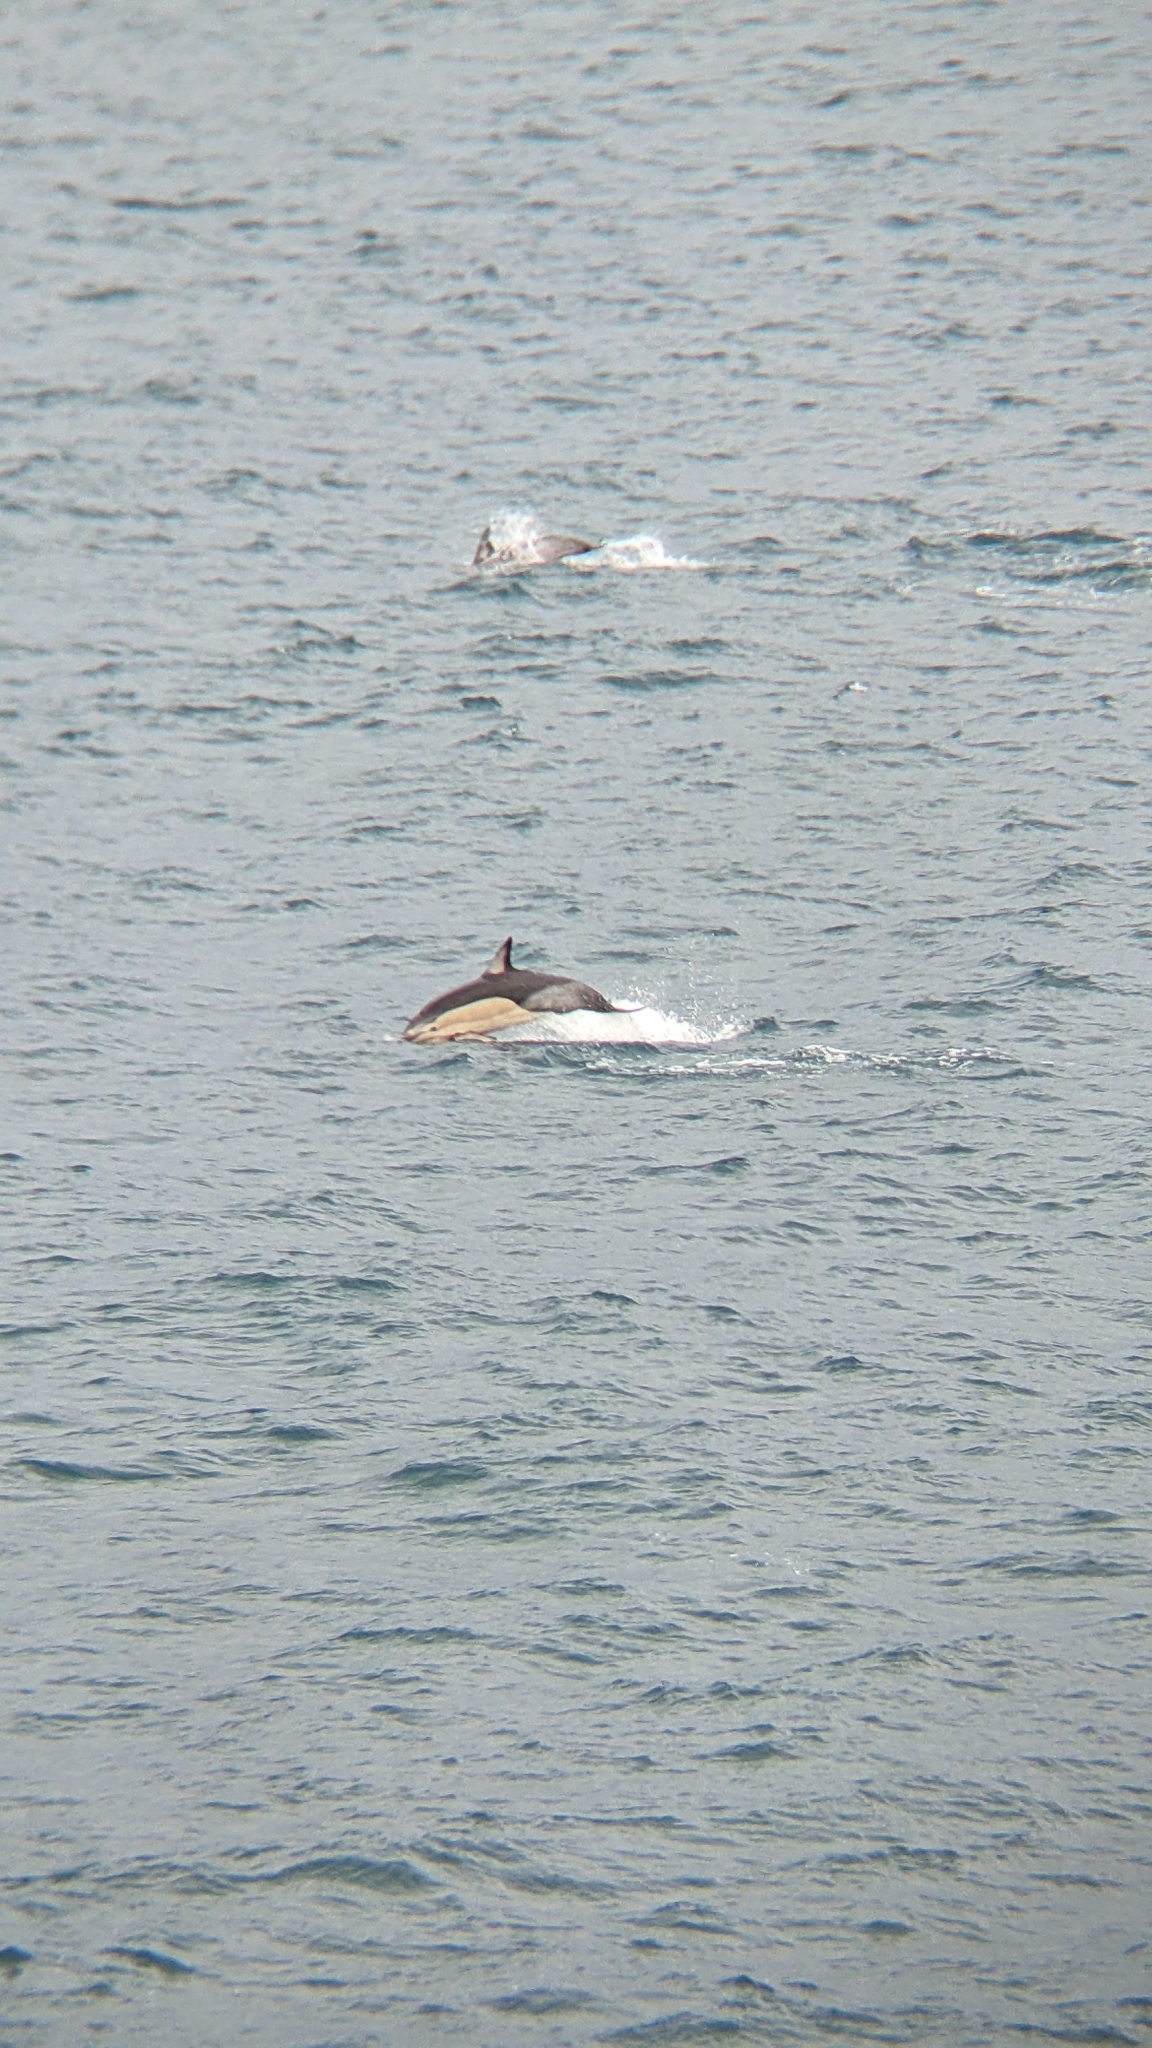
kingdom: Animalia
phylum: Chordata
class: Mammalia
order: Cetacea
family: Delphinidae
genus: Delphinus
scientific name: Delphinus delphis
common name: Common dolphin
